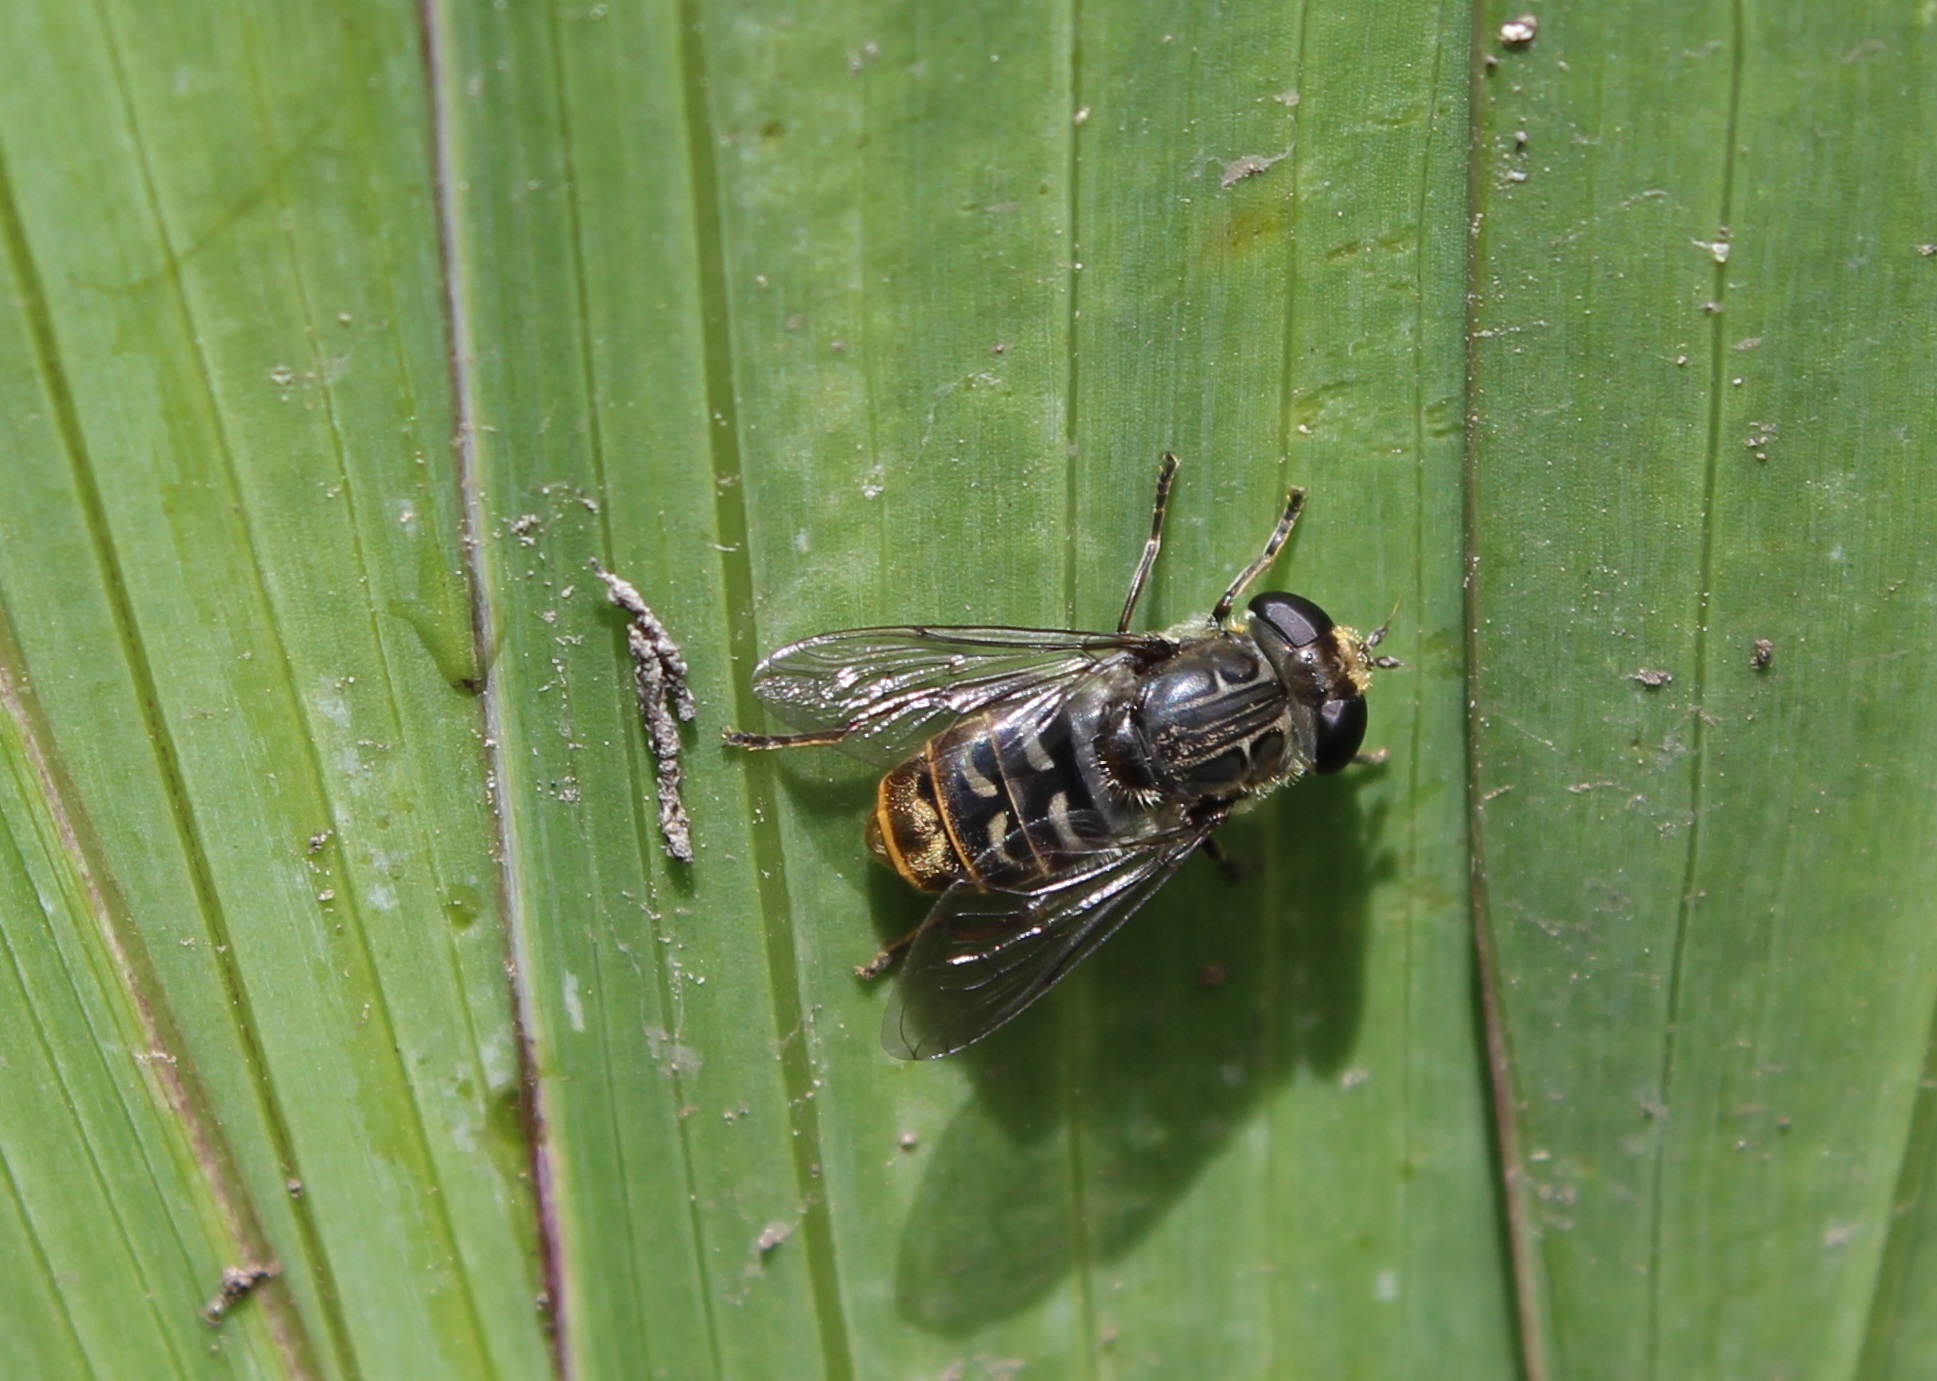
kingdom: Animalia
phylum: Arthropoda
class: Insecta
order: Diptera
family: Syrphidae
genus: Asemosyrphus
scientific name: Asemosyrphus
